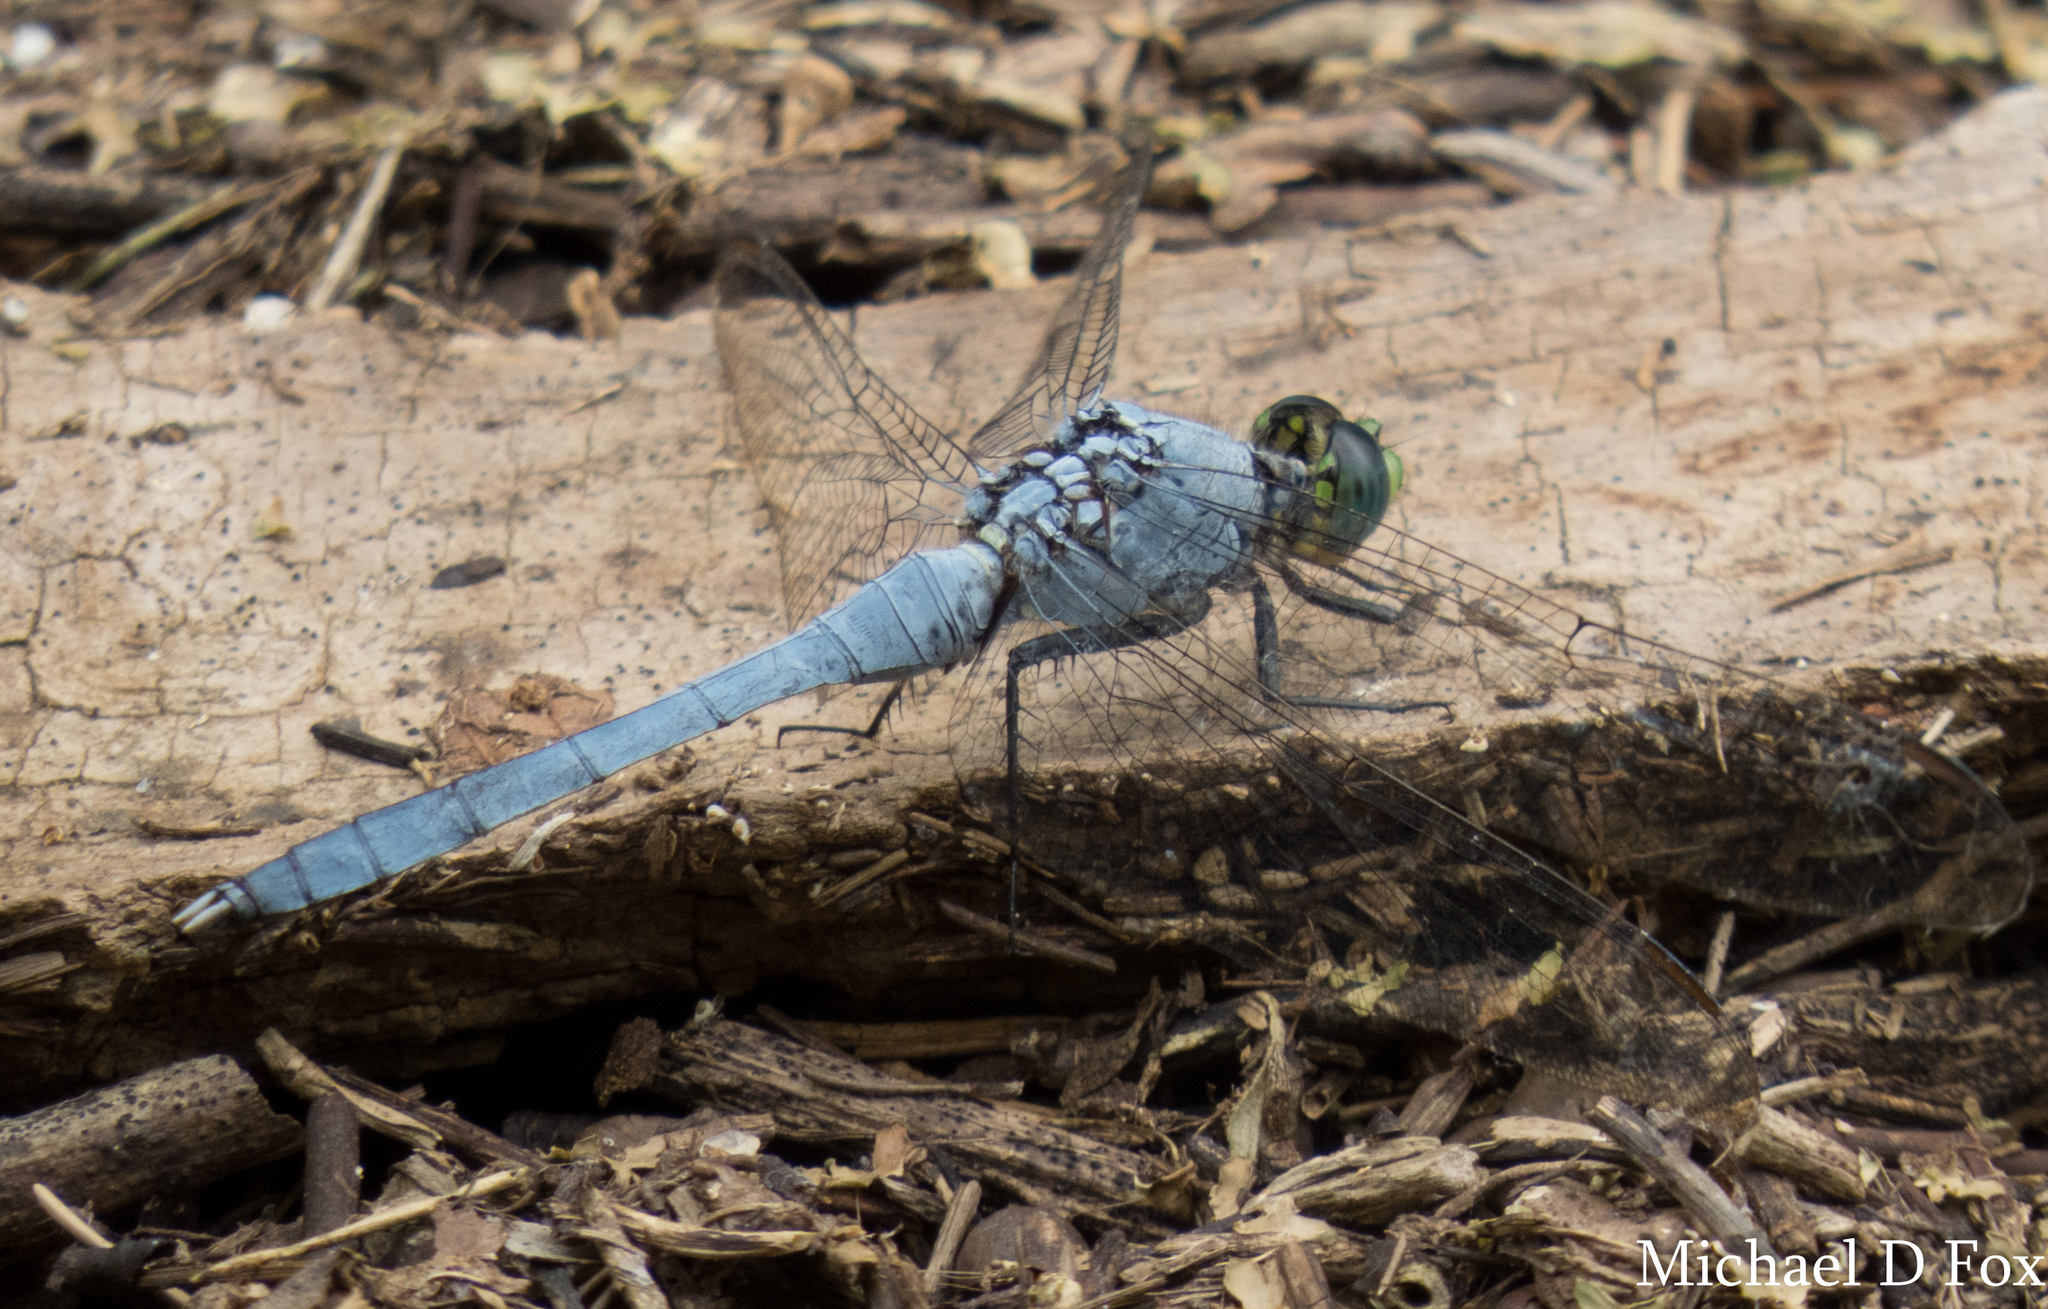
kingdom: Animalia
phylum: Arthropoda
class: Insecta
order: Odonata
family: Libellulidae
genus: Erythemis
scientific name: Erythemis simplicicollis
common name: Eastern pondhawk
